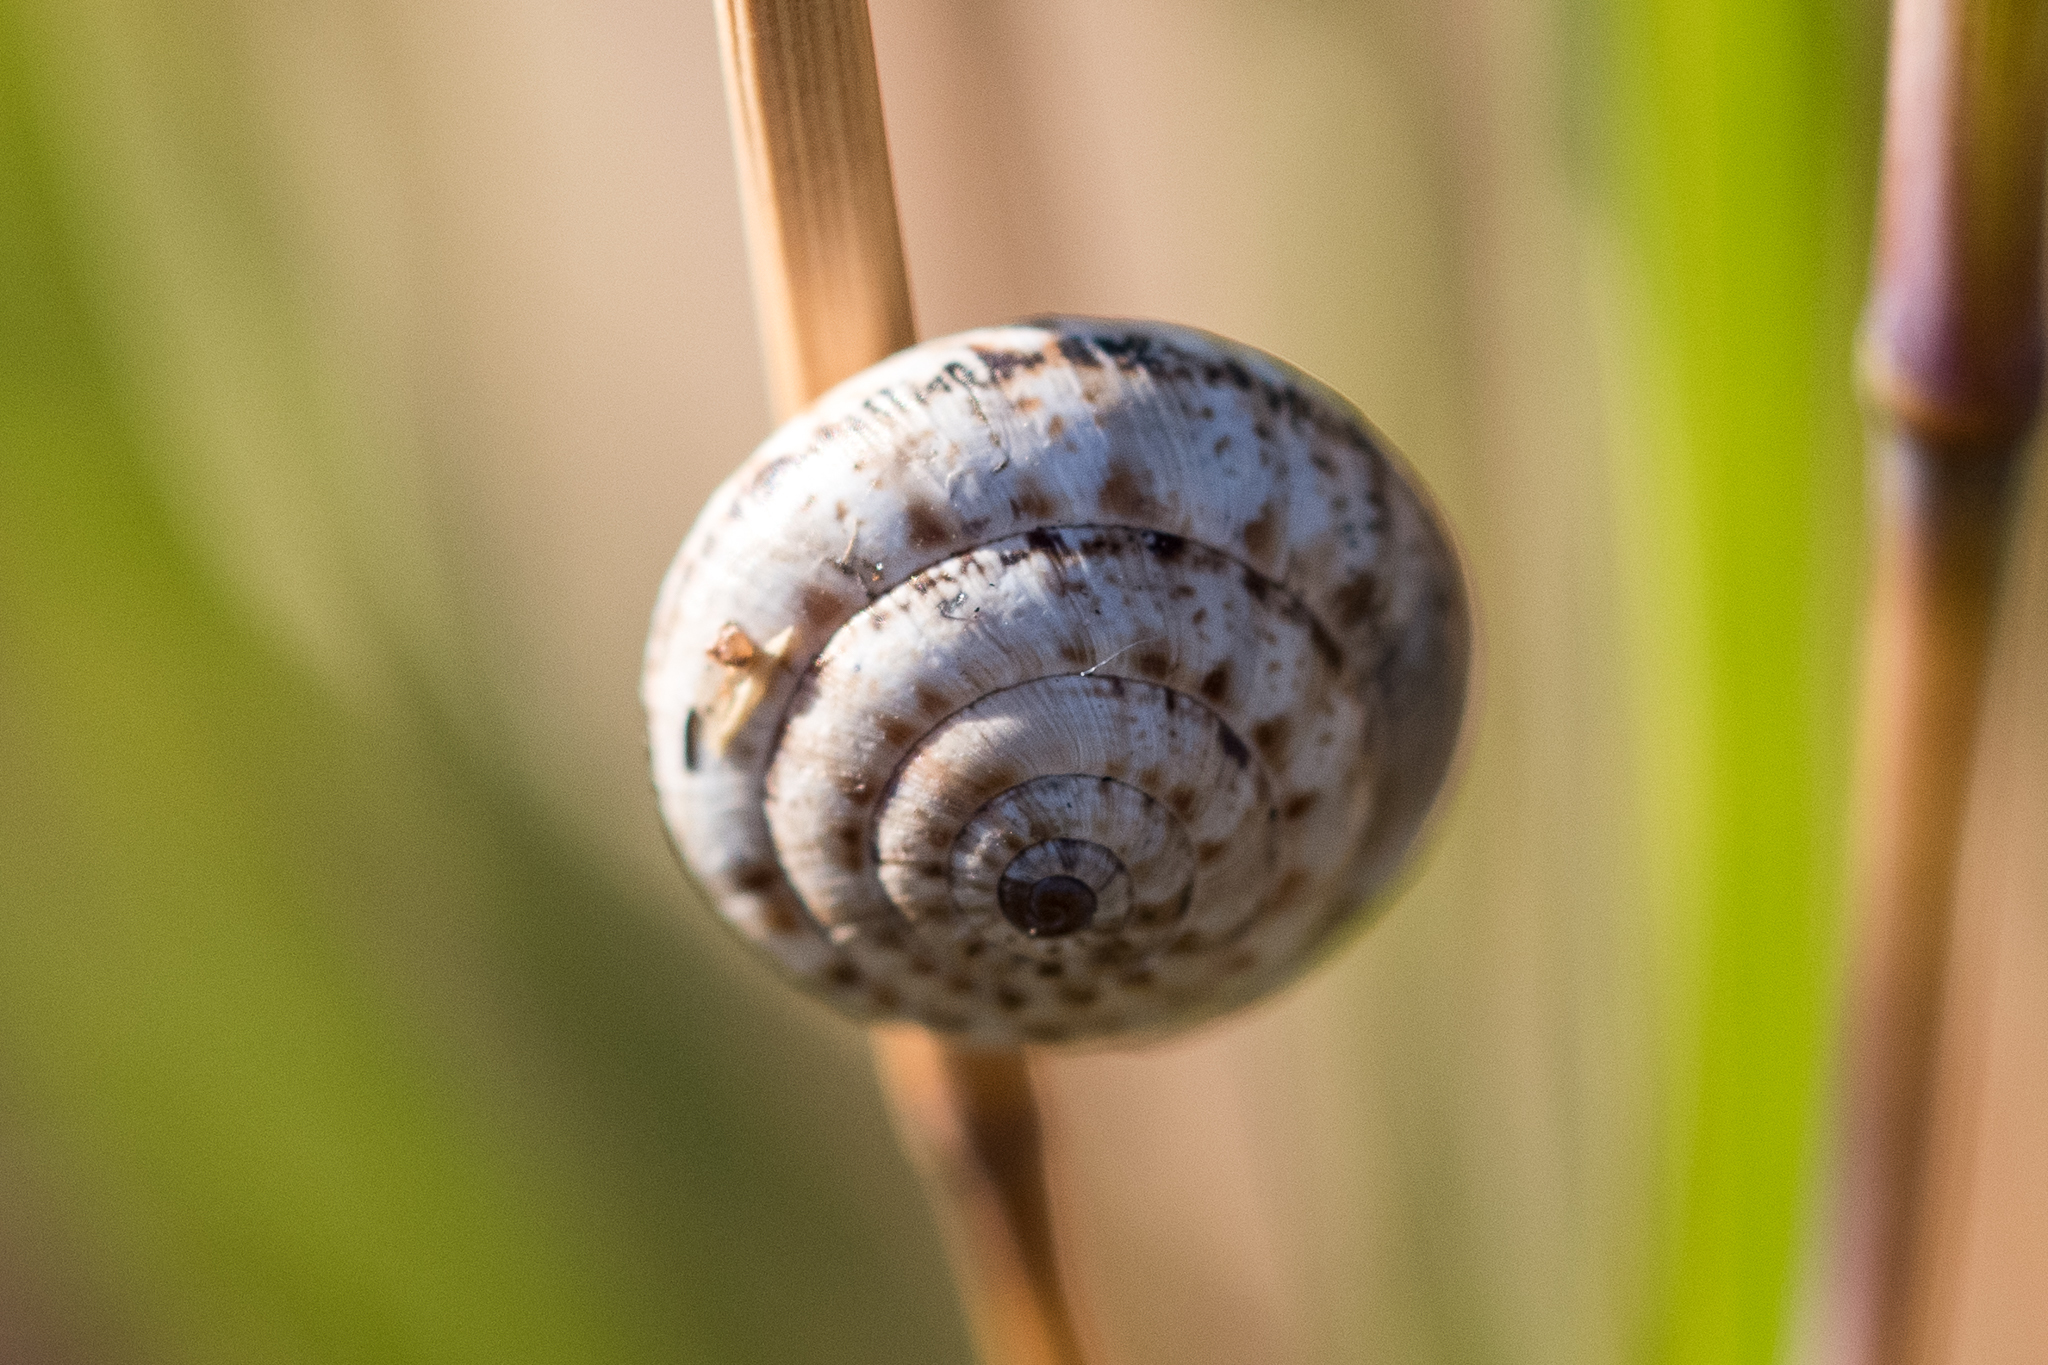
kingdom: Animalia
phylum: Mollusca
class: Gastropoda
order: Stylommatophora
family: Helicidae
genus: Theba
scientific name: Theba pisana
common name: White snail
